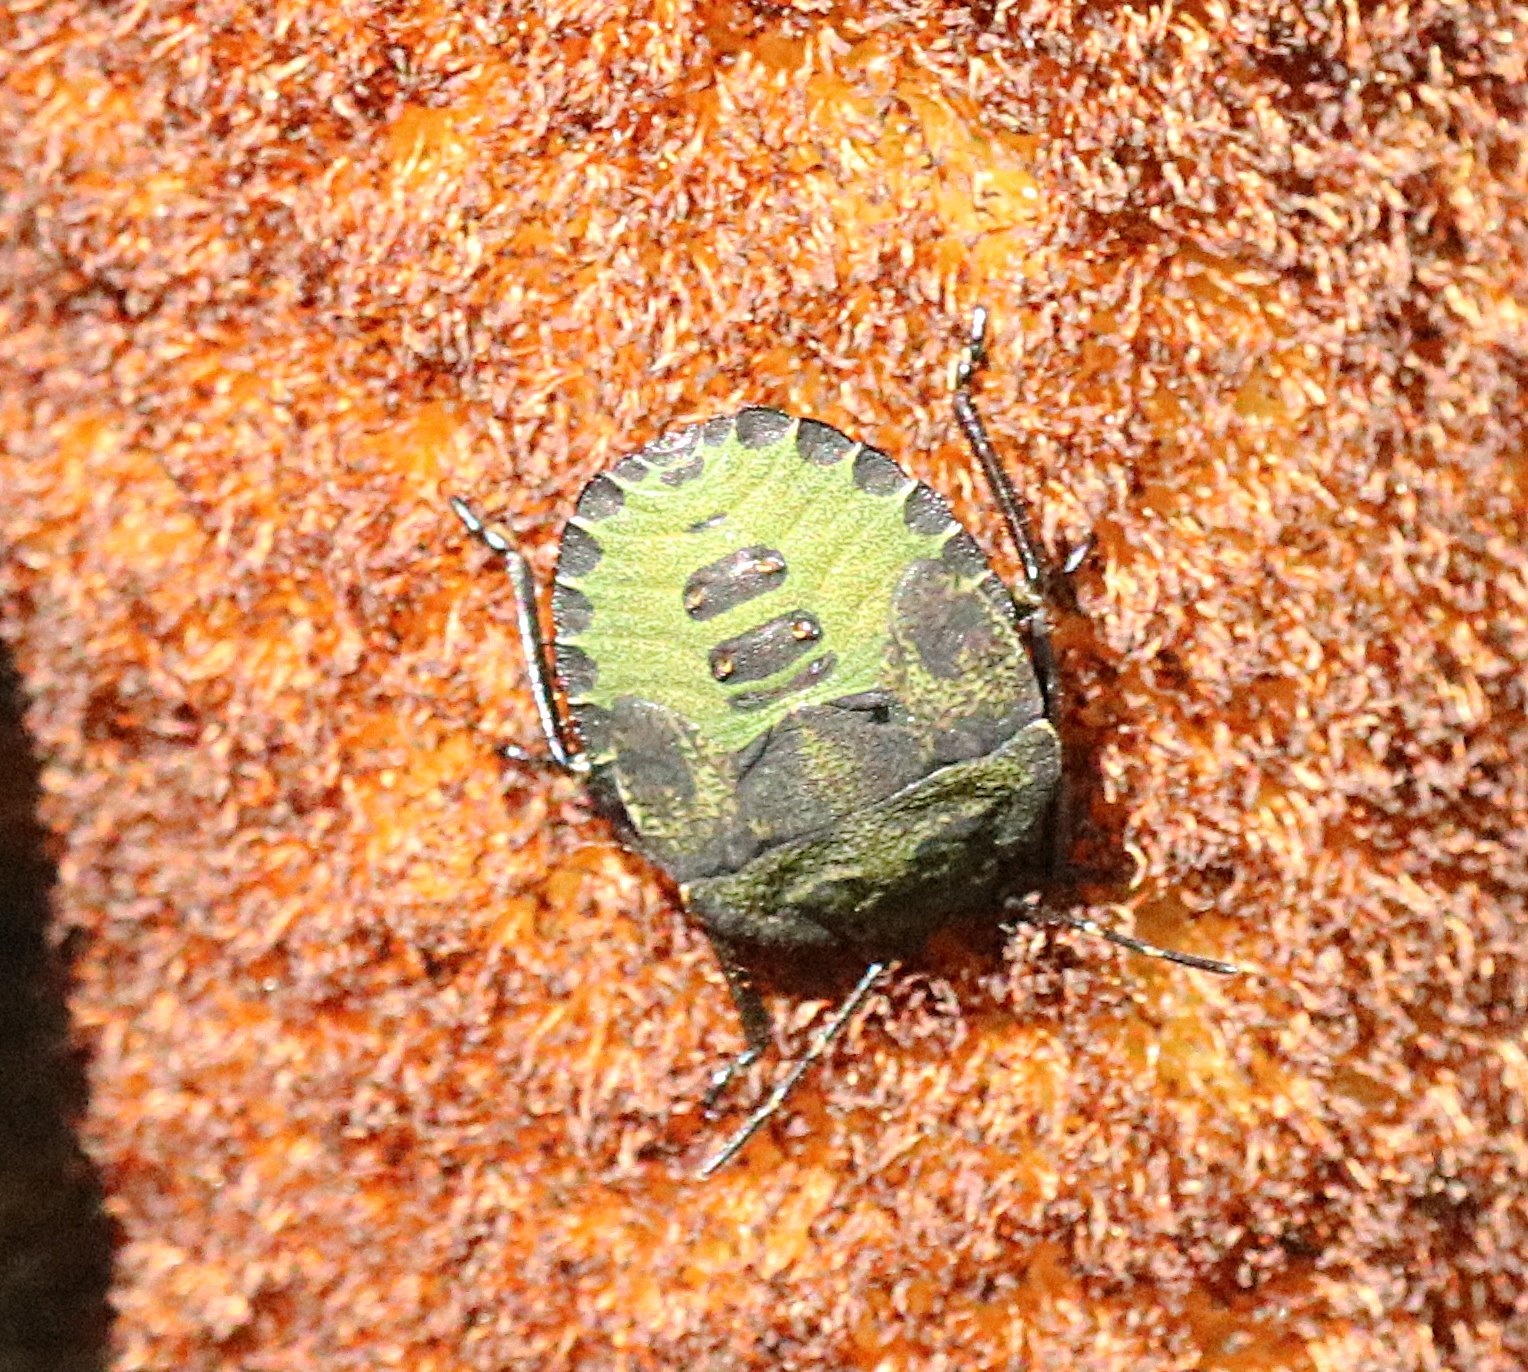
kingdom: Animalia
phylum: Arthropoda
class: Insecta
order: Hemiptera
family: Pentatomidae
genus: Palomena
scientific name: Palomena prasina
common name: Green shieldbug
